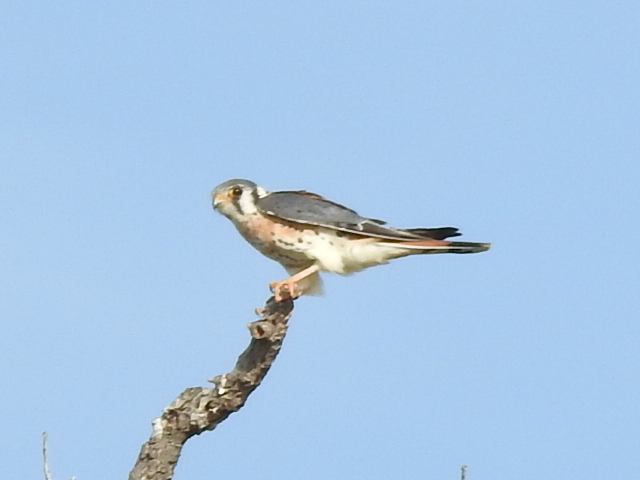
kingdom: Animalia
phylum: Chordata
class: Aves
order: Falconiformes
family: Falconidae
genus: Falco
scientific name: Falco sparverius
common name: American kestrel
